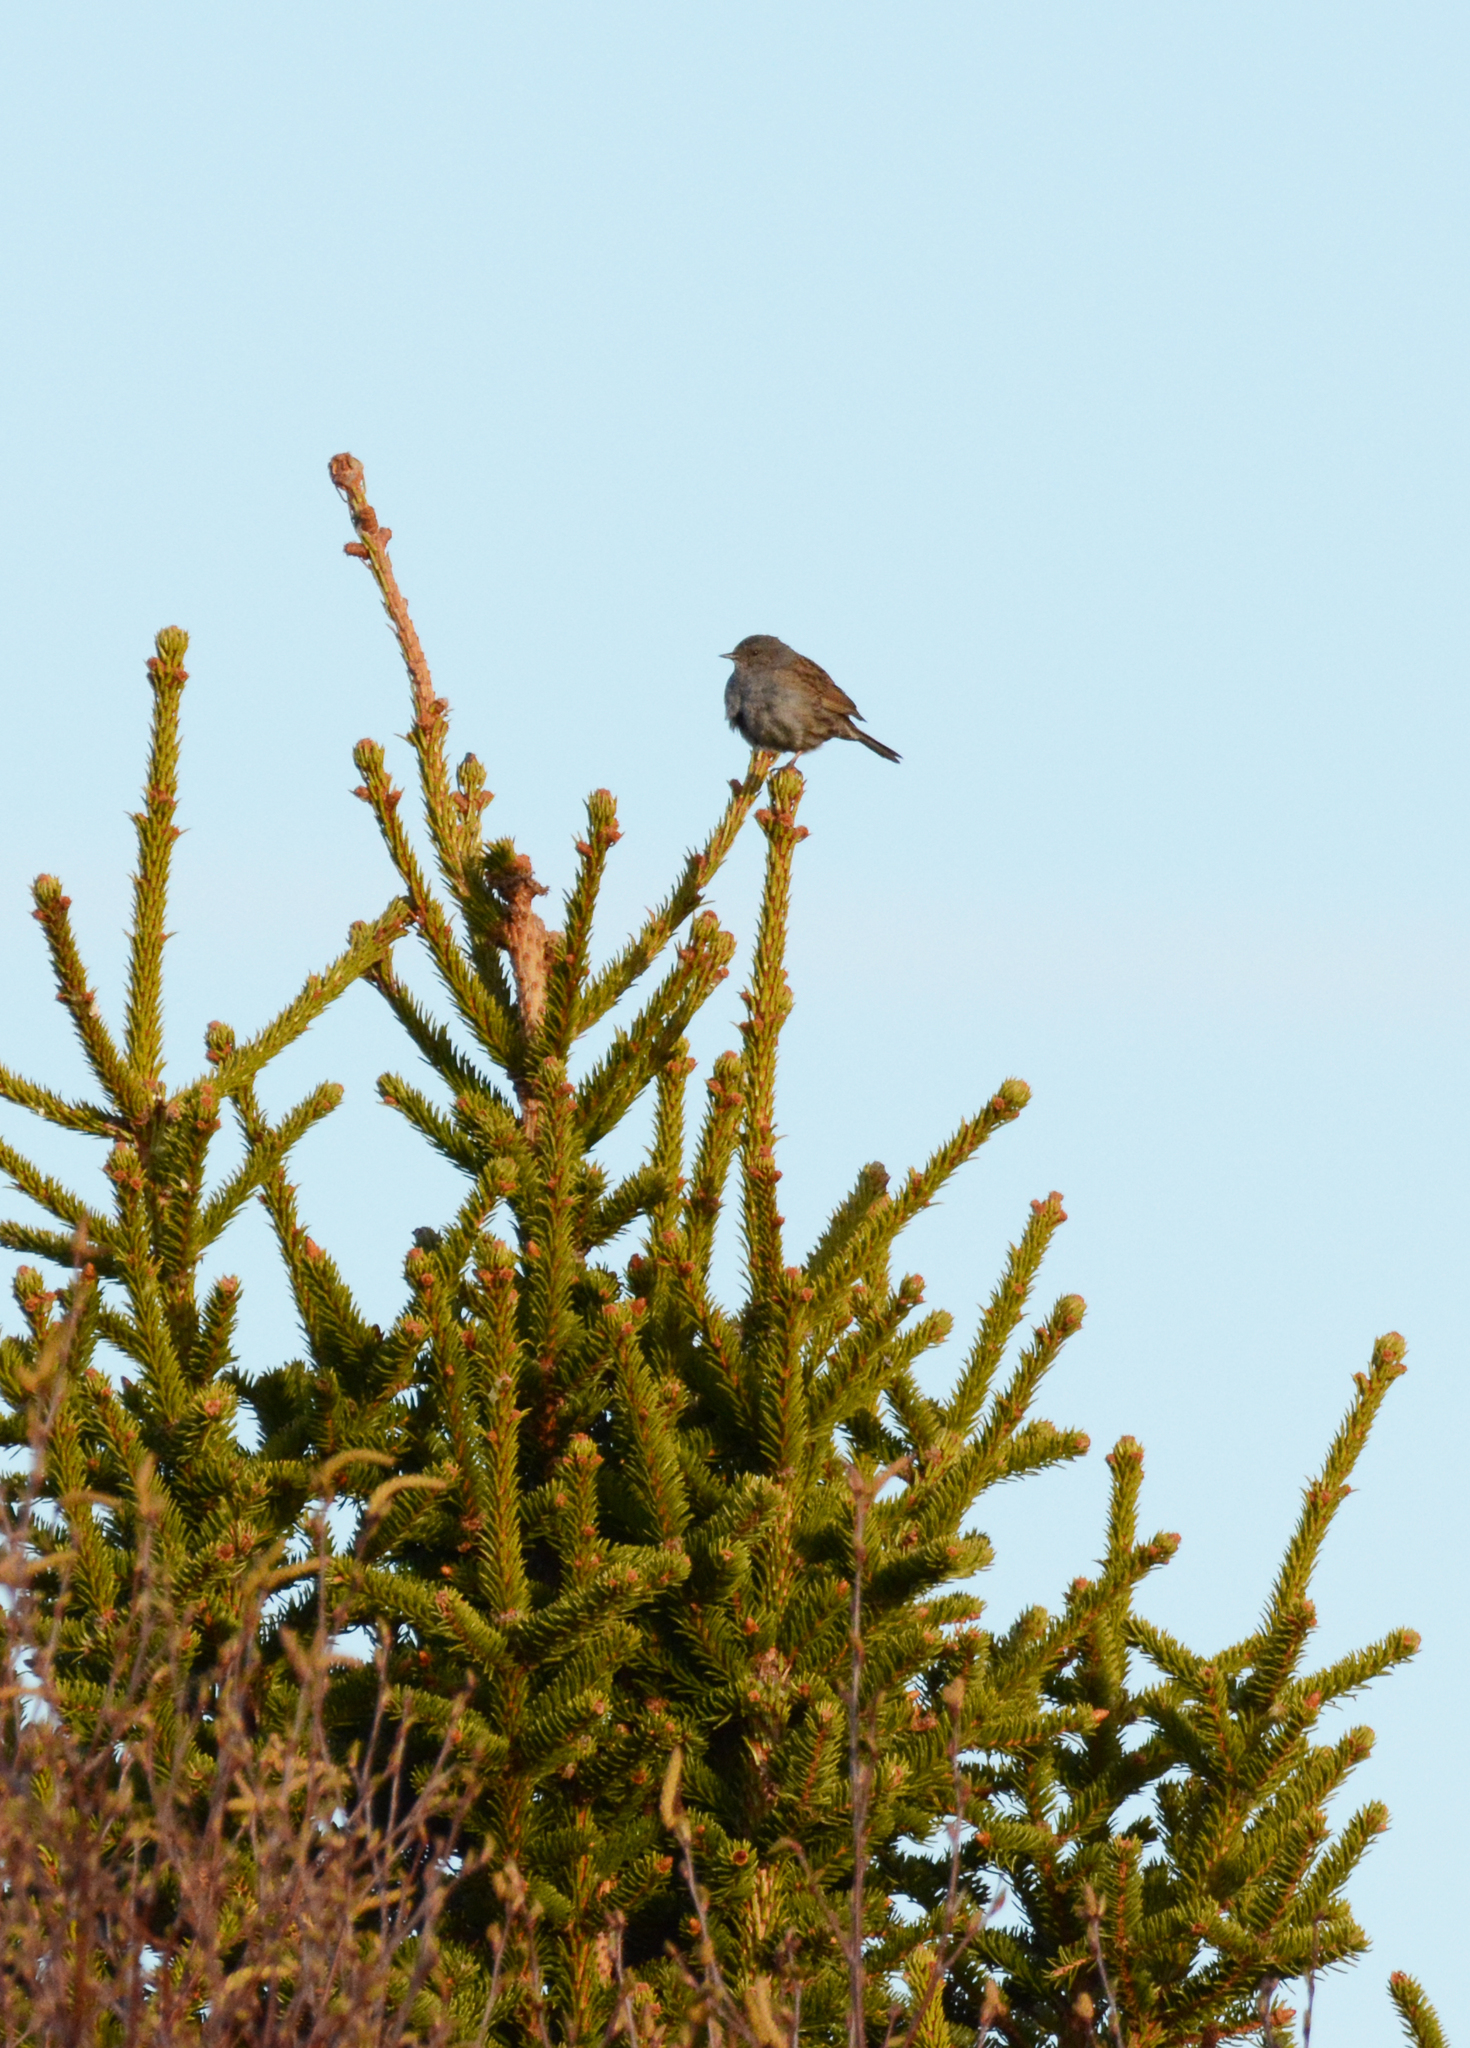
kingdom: Animalia
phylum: Chordata
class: Aves
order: Passeriformes
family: Prunellidae
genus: Prunella
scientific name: Prunella modularis
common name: Dunnock
